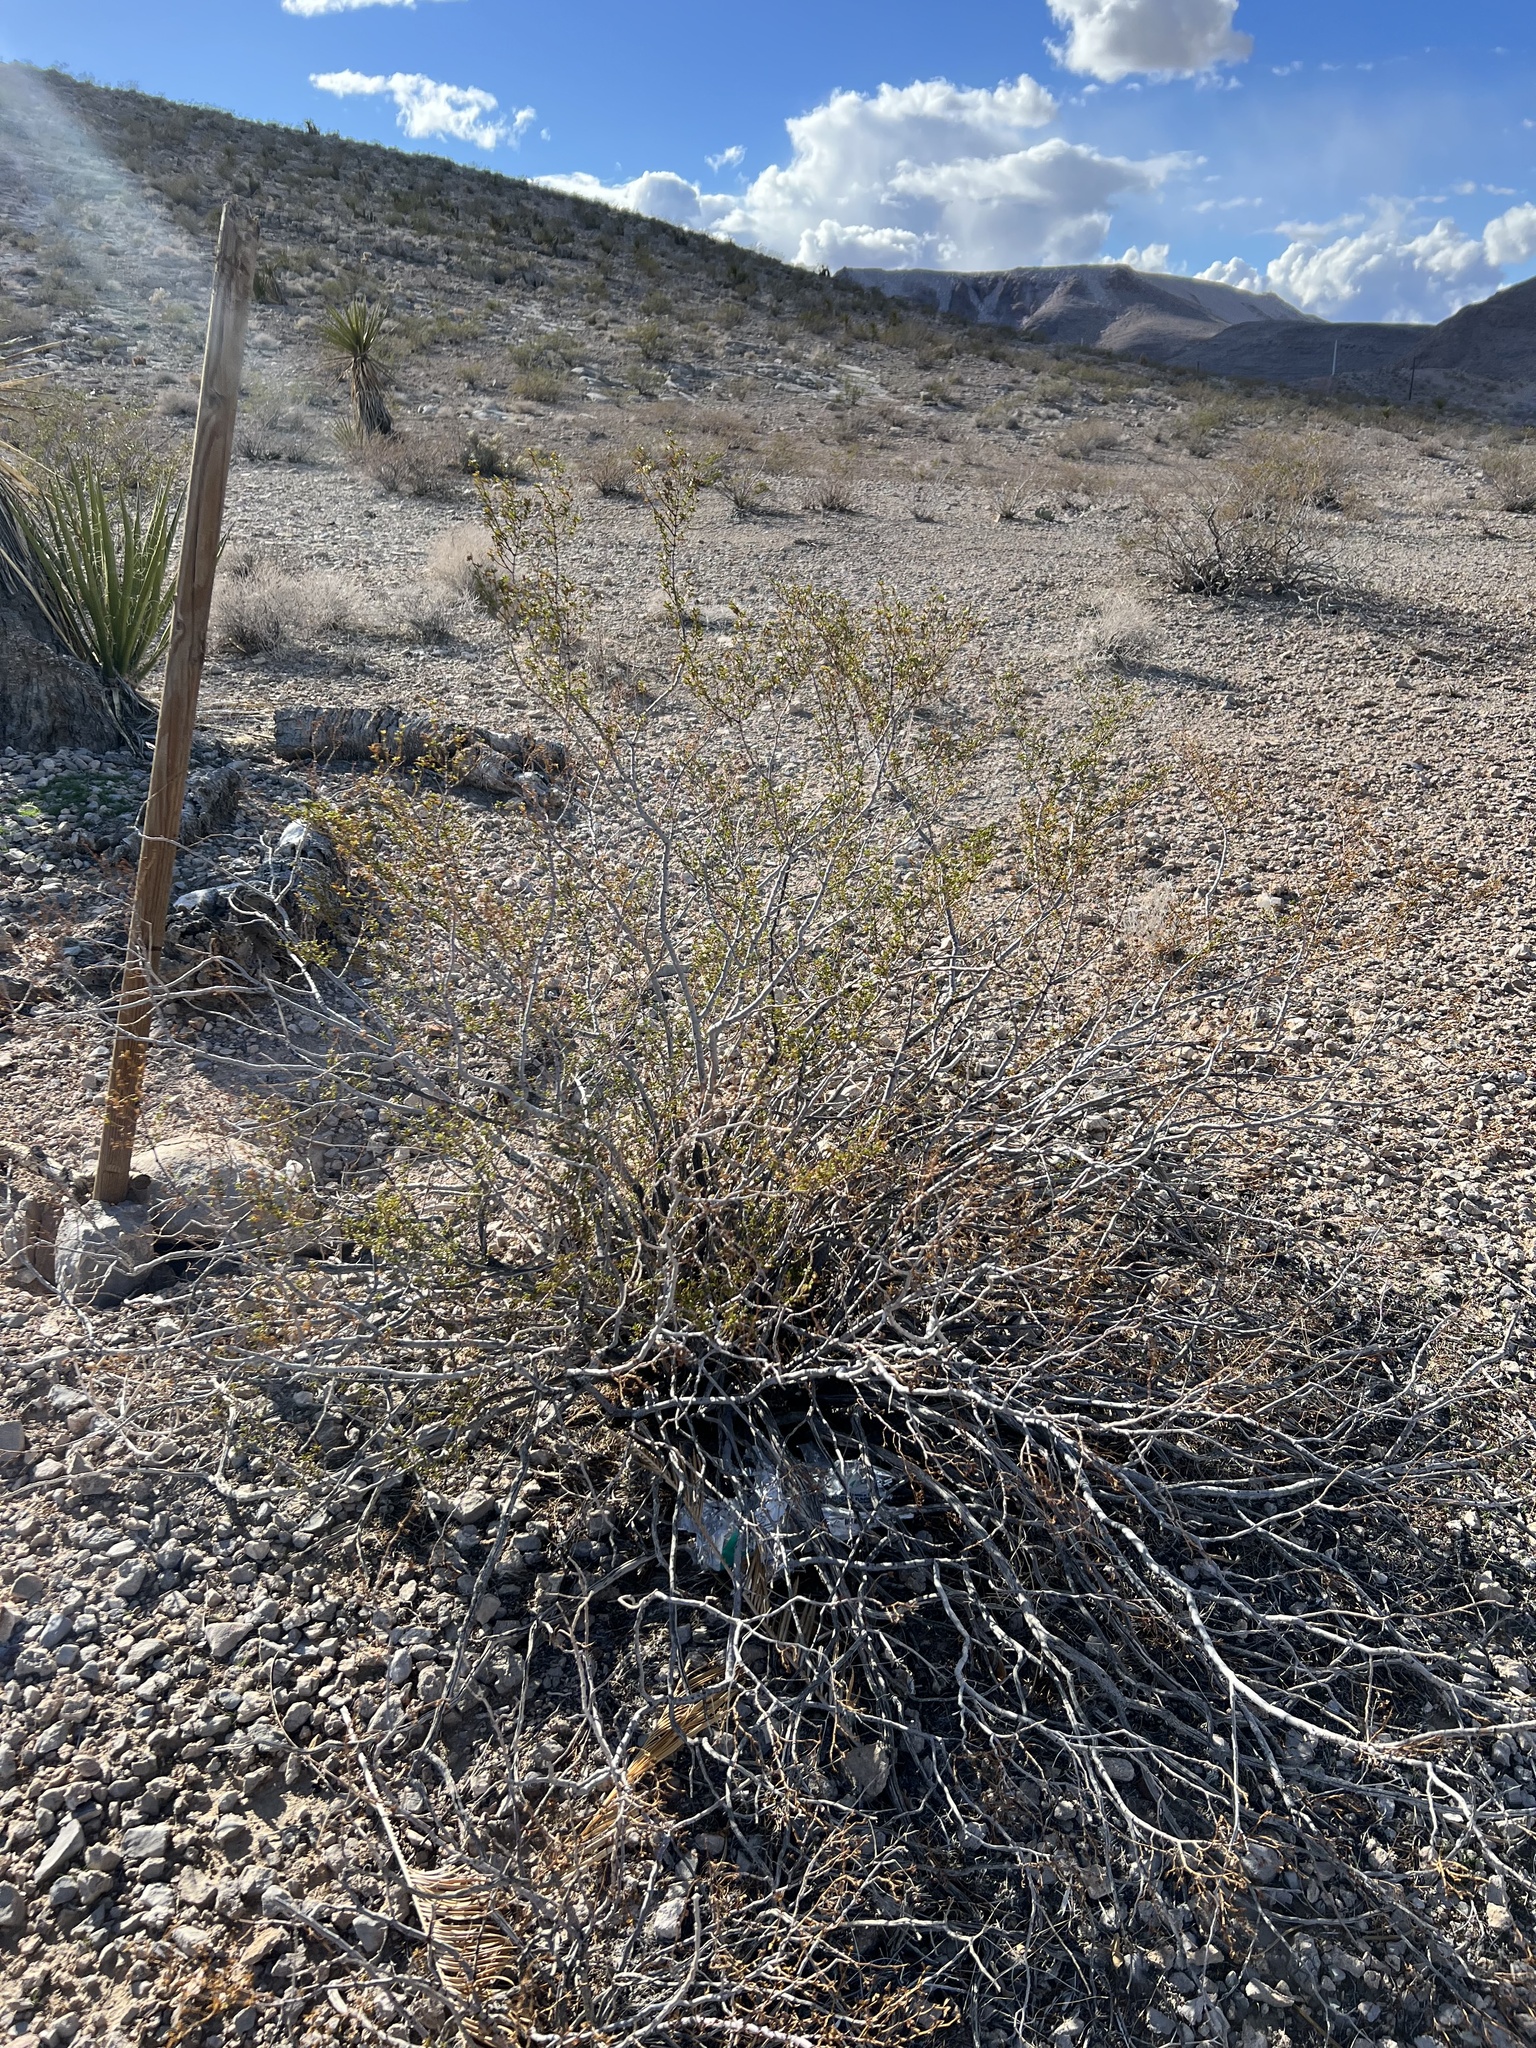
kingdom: Plantae
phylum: Tracheophyta
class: Magnoliopsida
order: Zygophyllales
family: Zygophyllaceae
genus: Larrea
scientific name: Larrea tridentata
